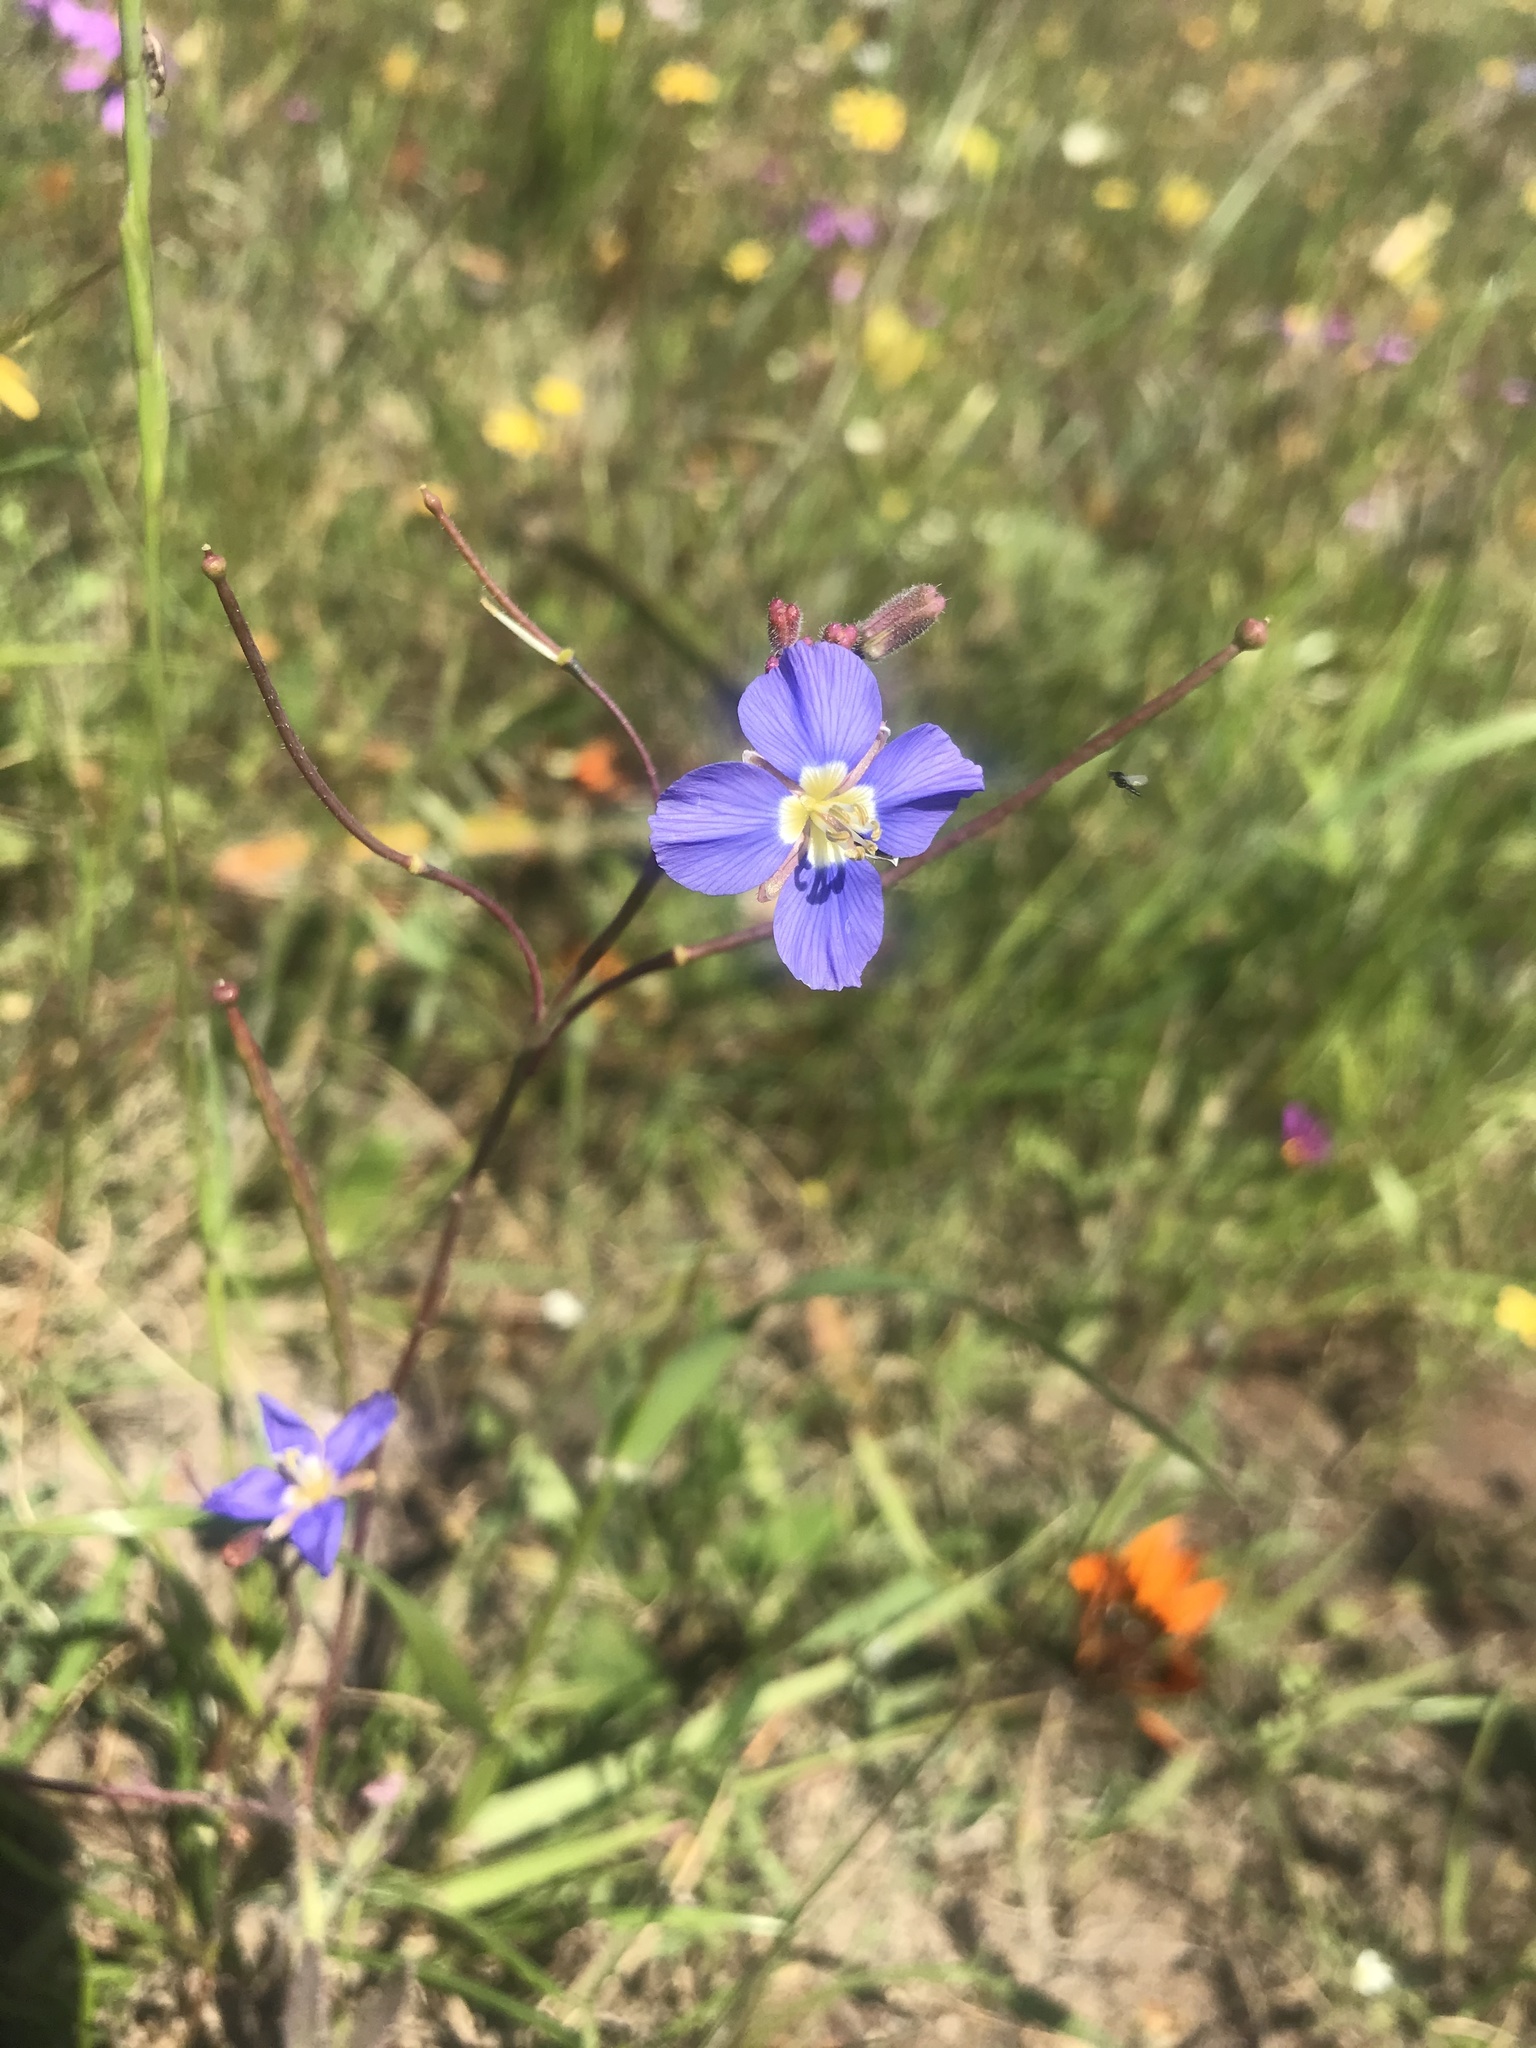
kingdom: Plantae
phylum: Tracheophyta
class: Magnoliopsida
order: Brassicales
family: Brassicaceae
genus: Heliophila
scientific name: Heliophila africana
